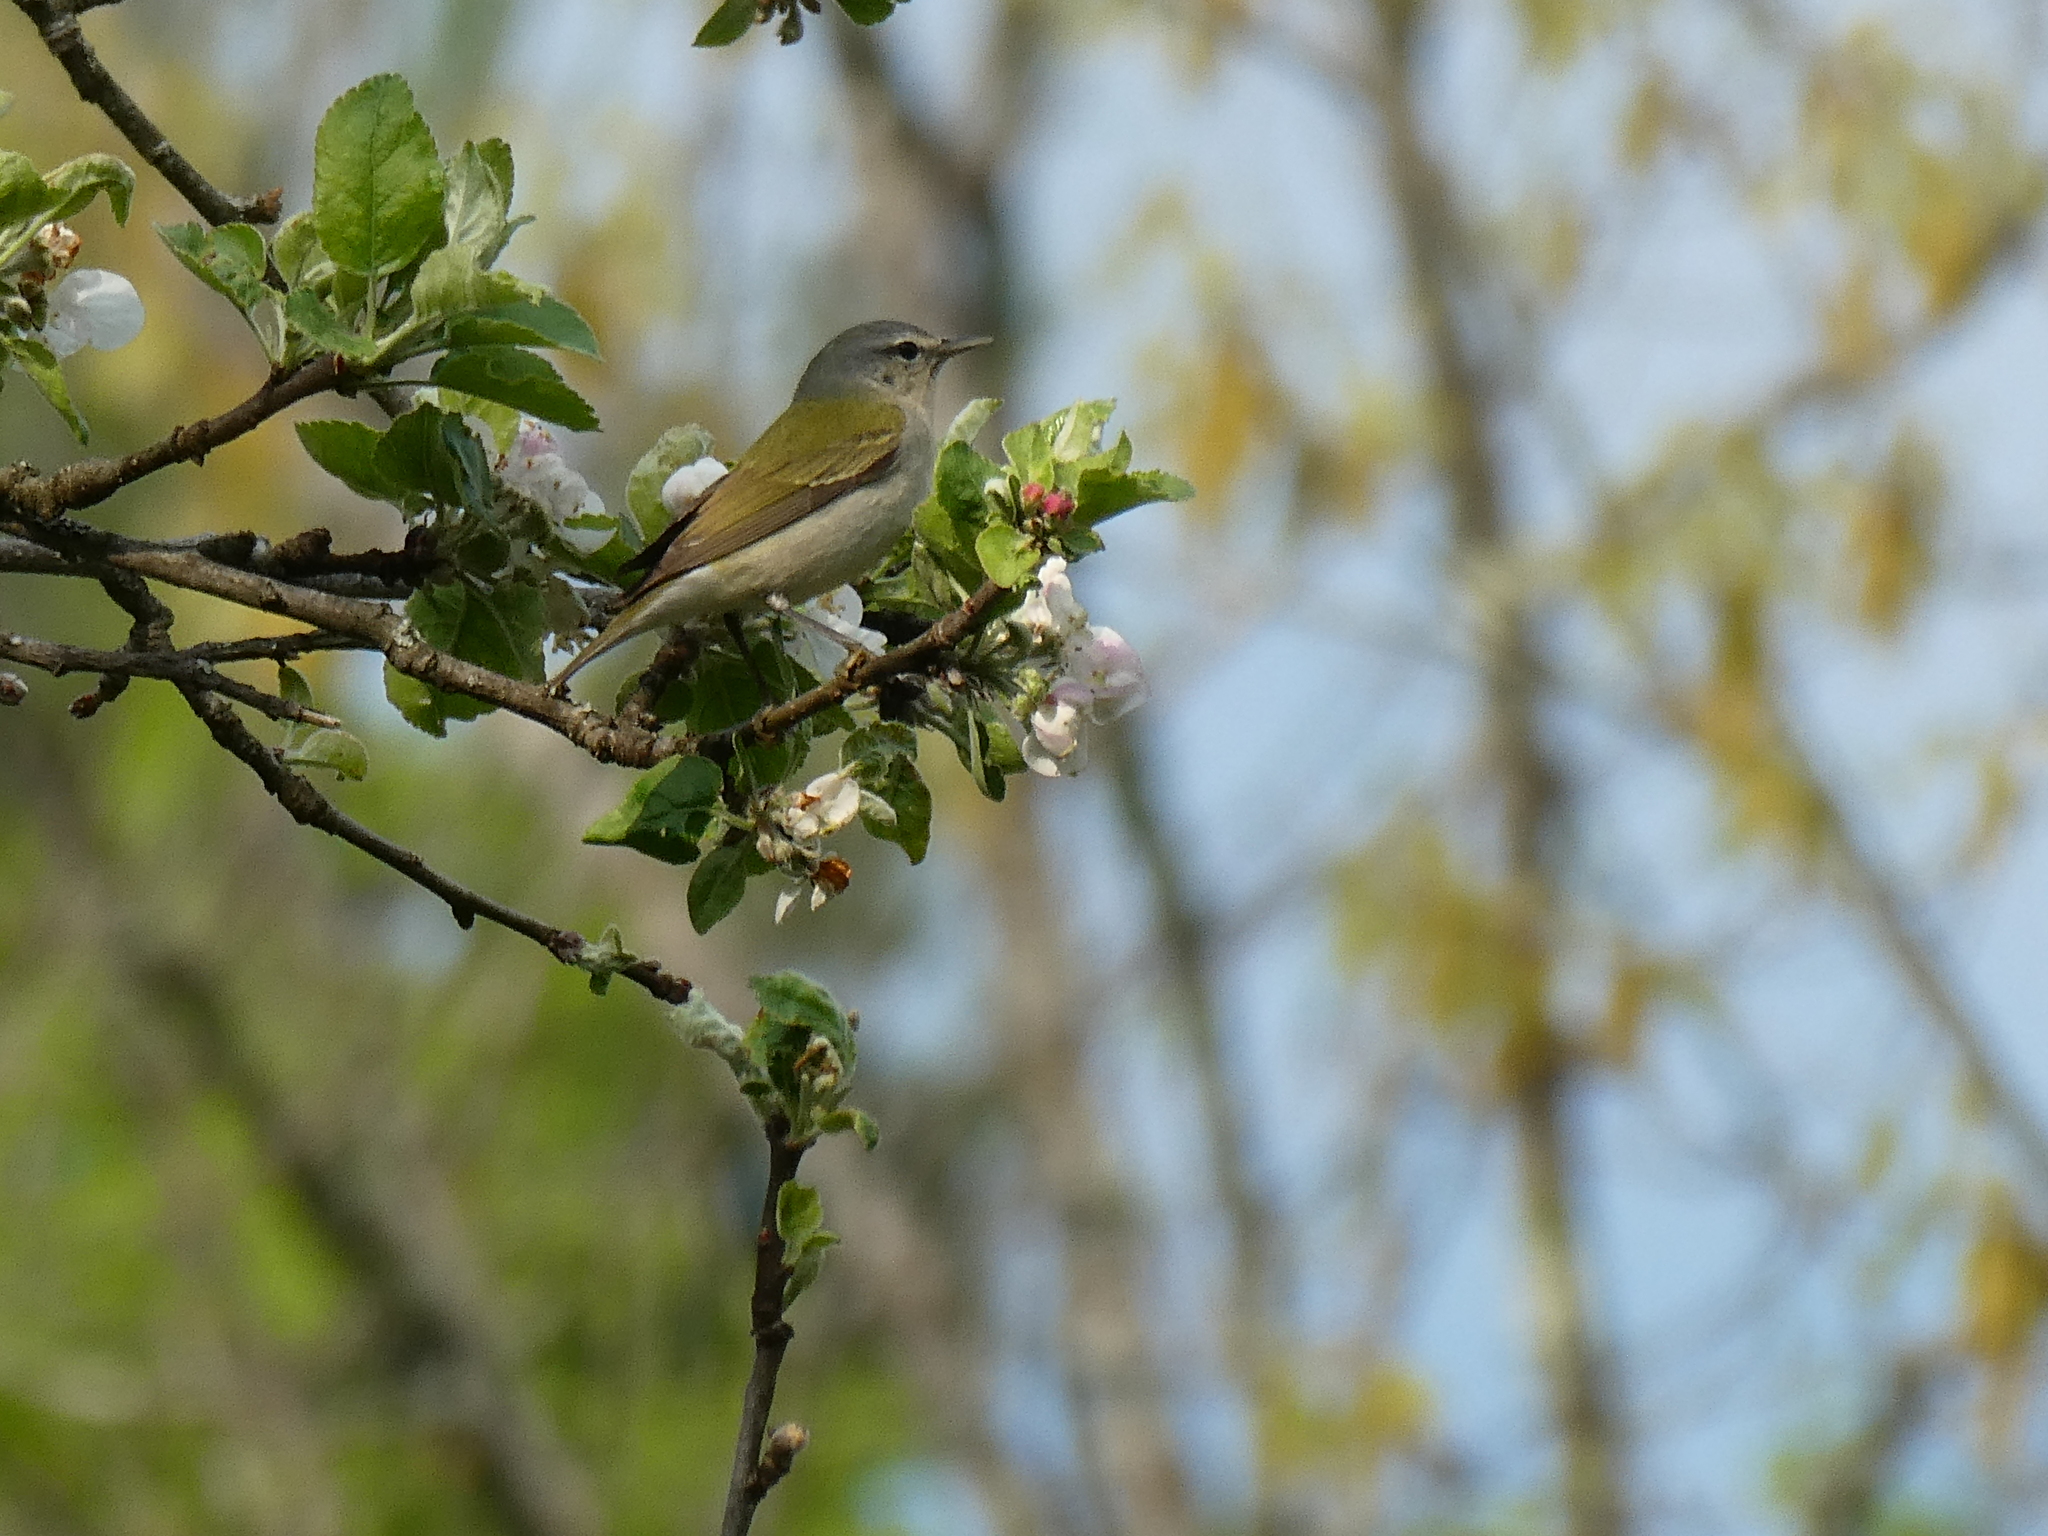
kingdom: Animalia
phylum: Chordata
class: Aves
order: Passeriformes
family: Parulidae
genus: Leiothlypis
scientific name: Leiothlypis peregrina
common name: Tennessee warbler
